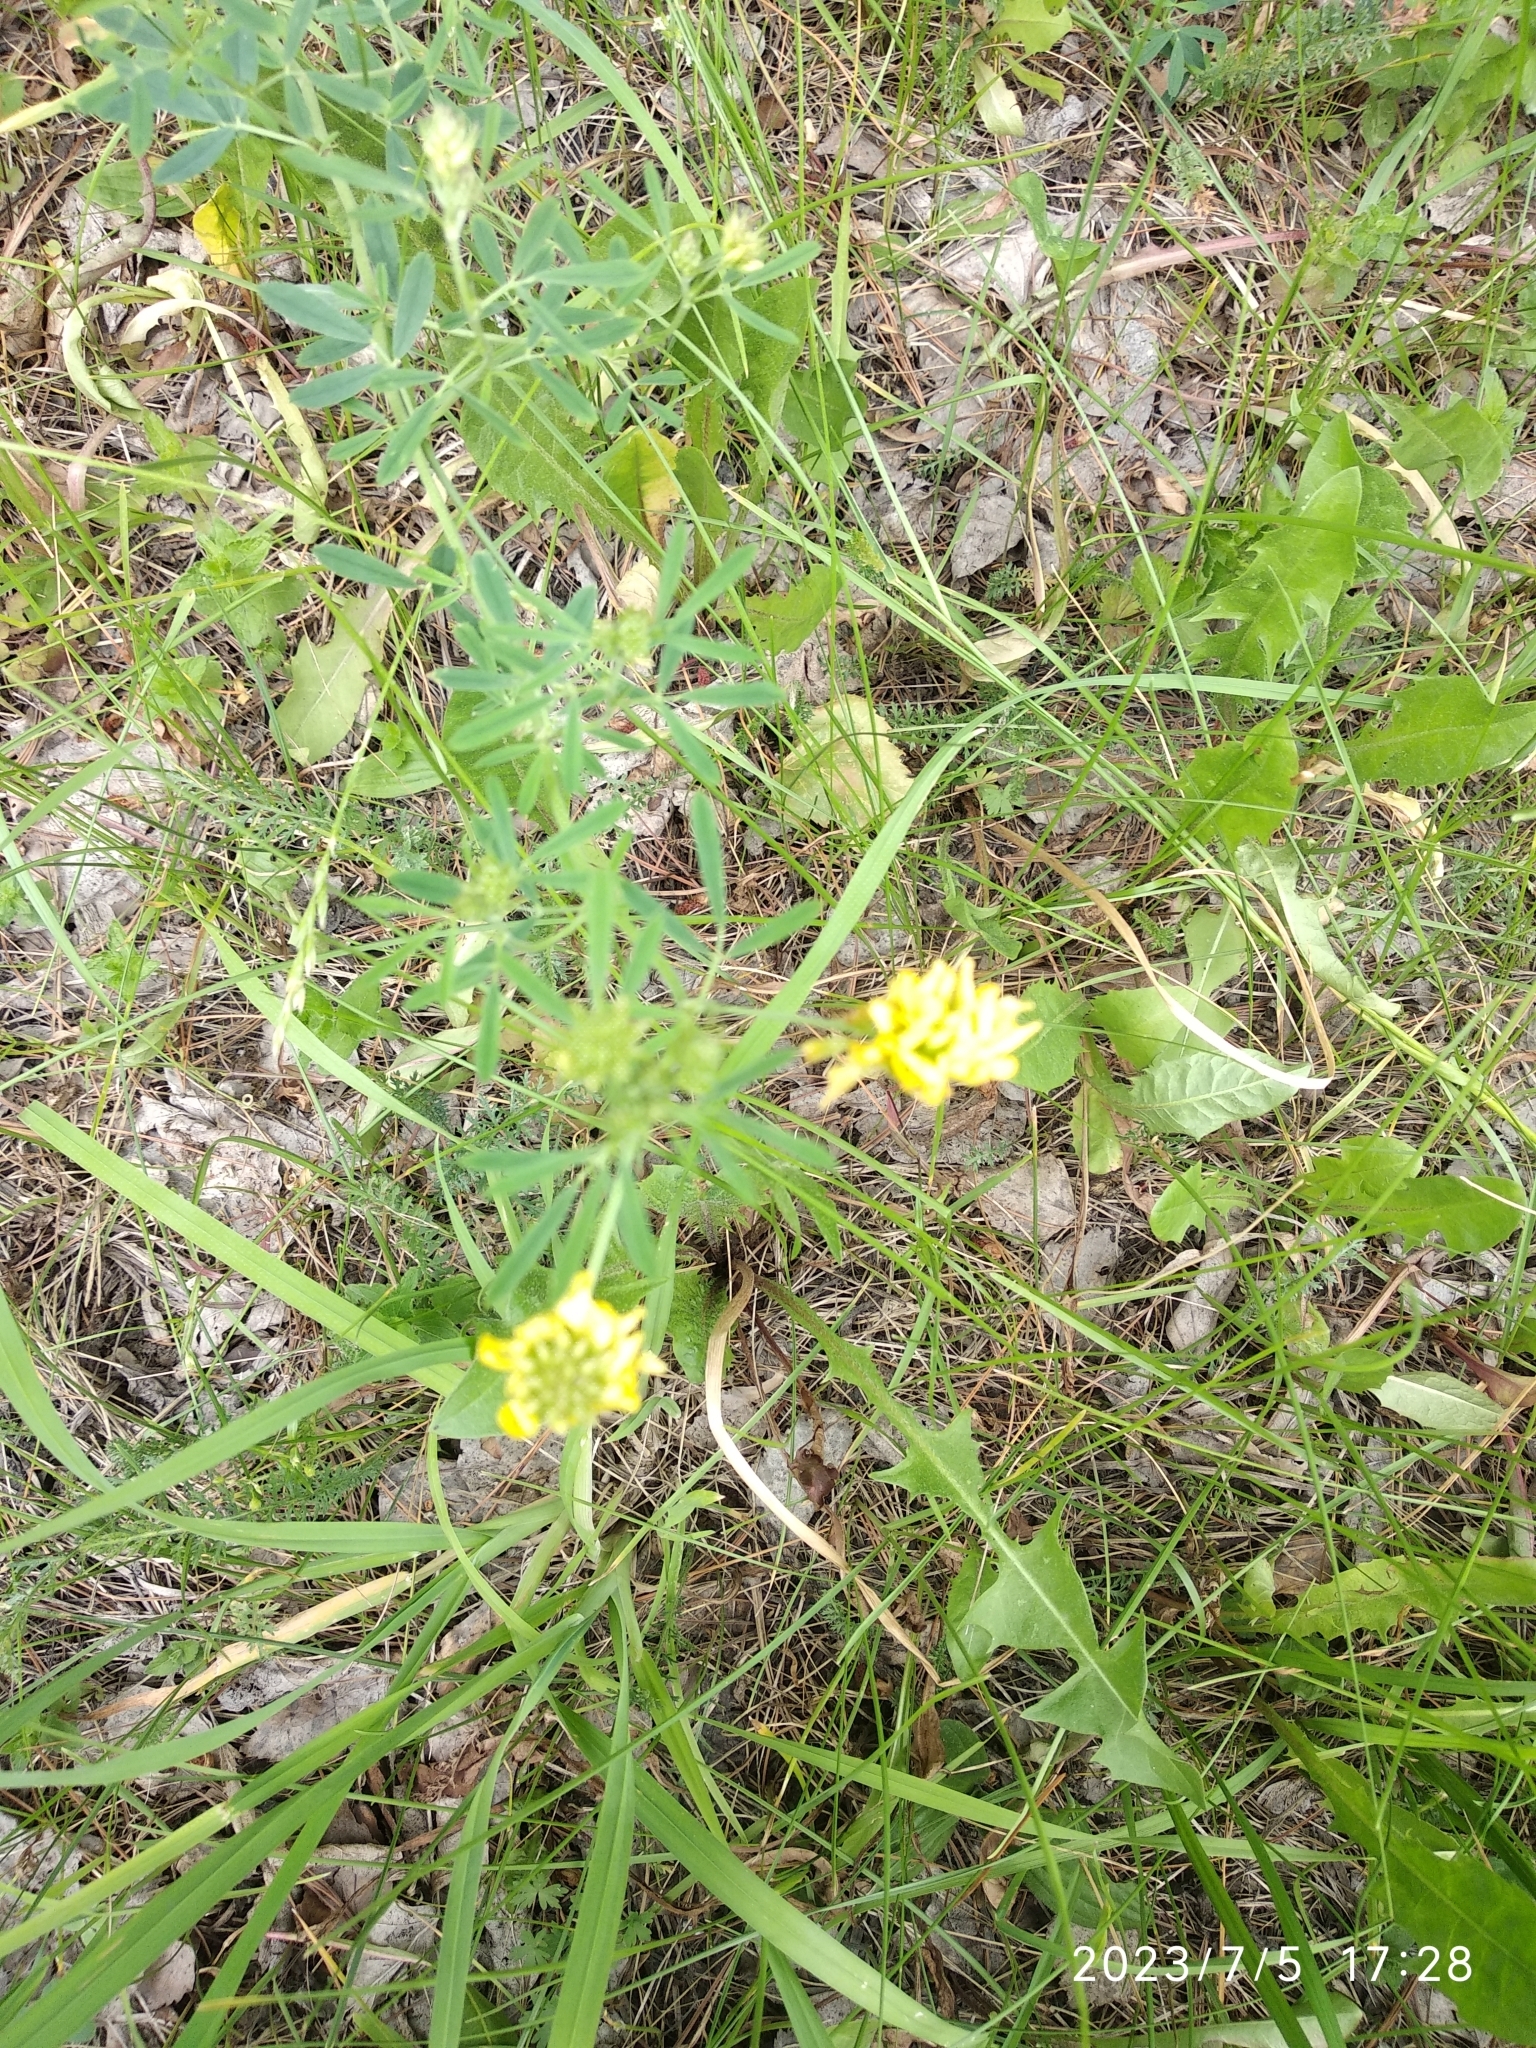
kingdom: Plantae
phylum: Tracheophyta
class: Magnoliopsida
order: Fabales
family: Fabaceae
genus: Medicago
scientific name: Medicago falcata
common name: Sickle medick
